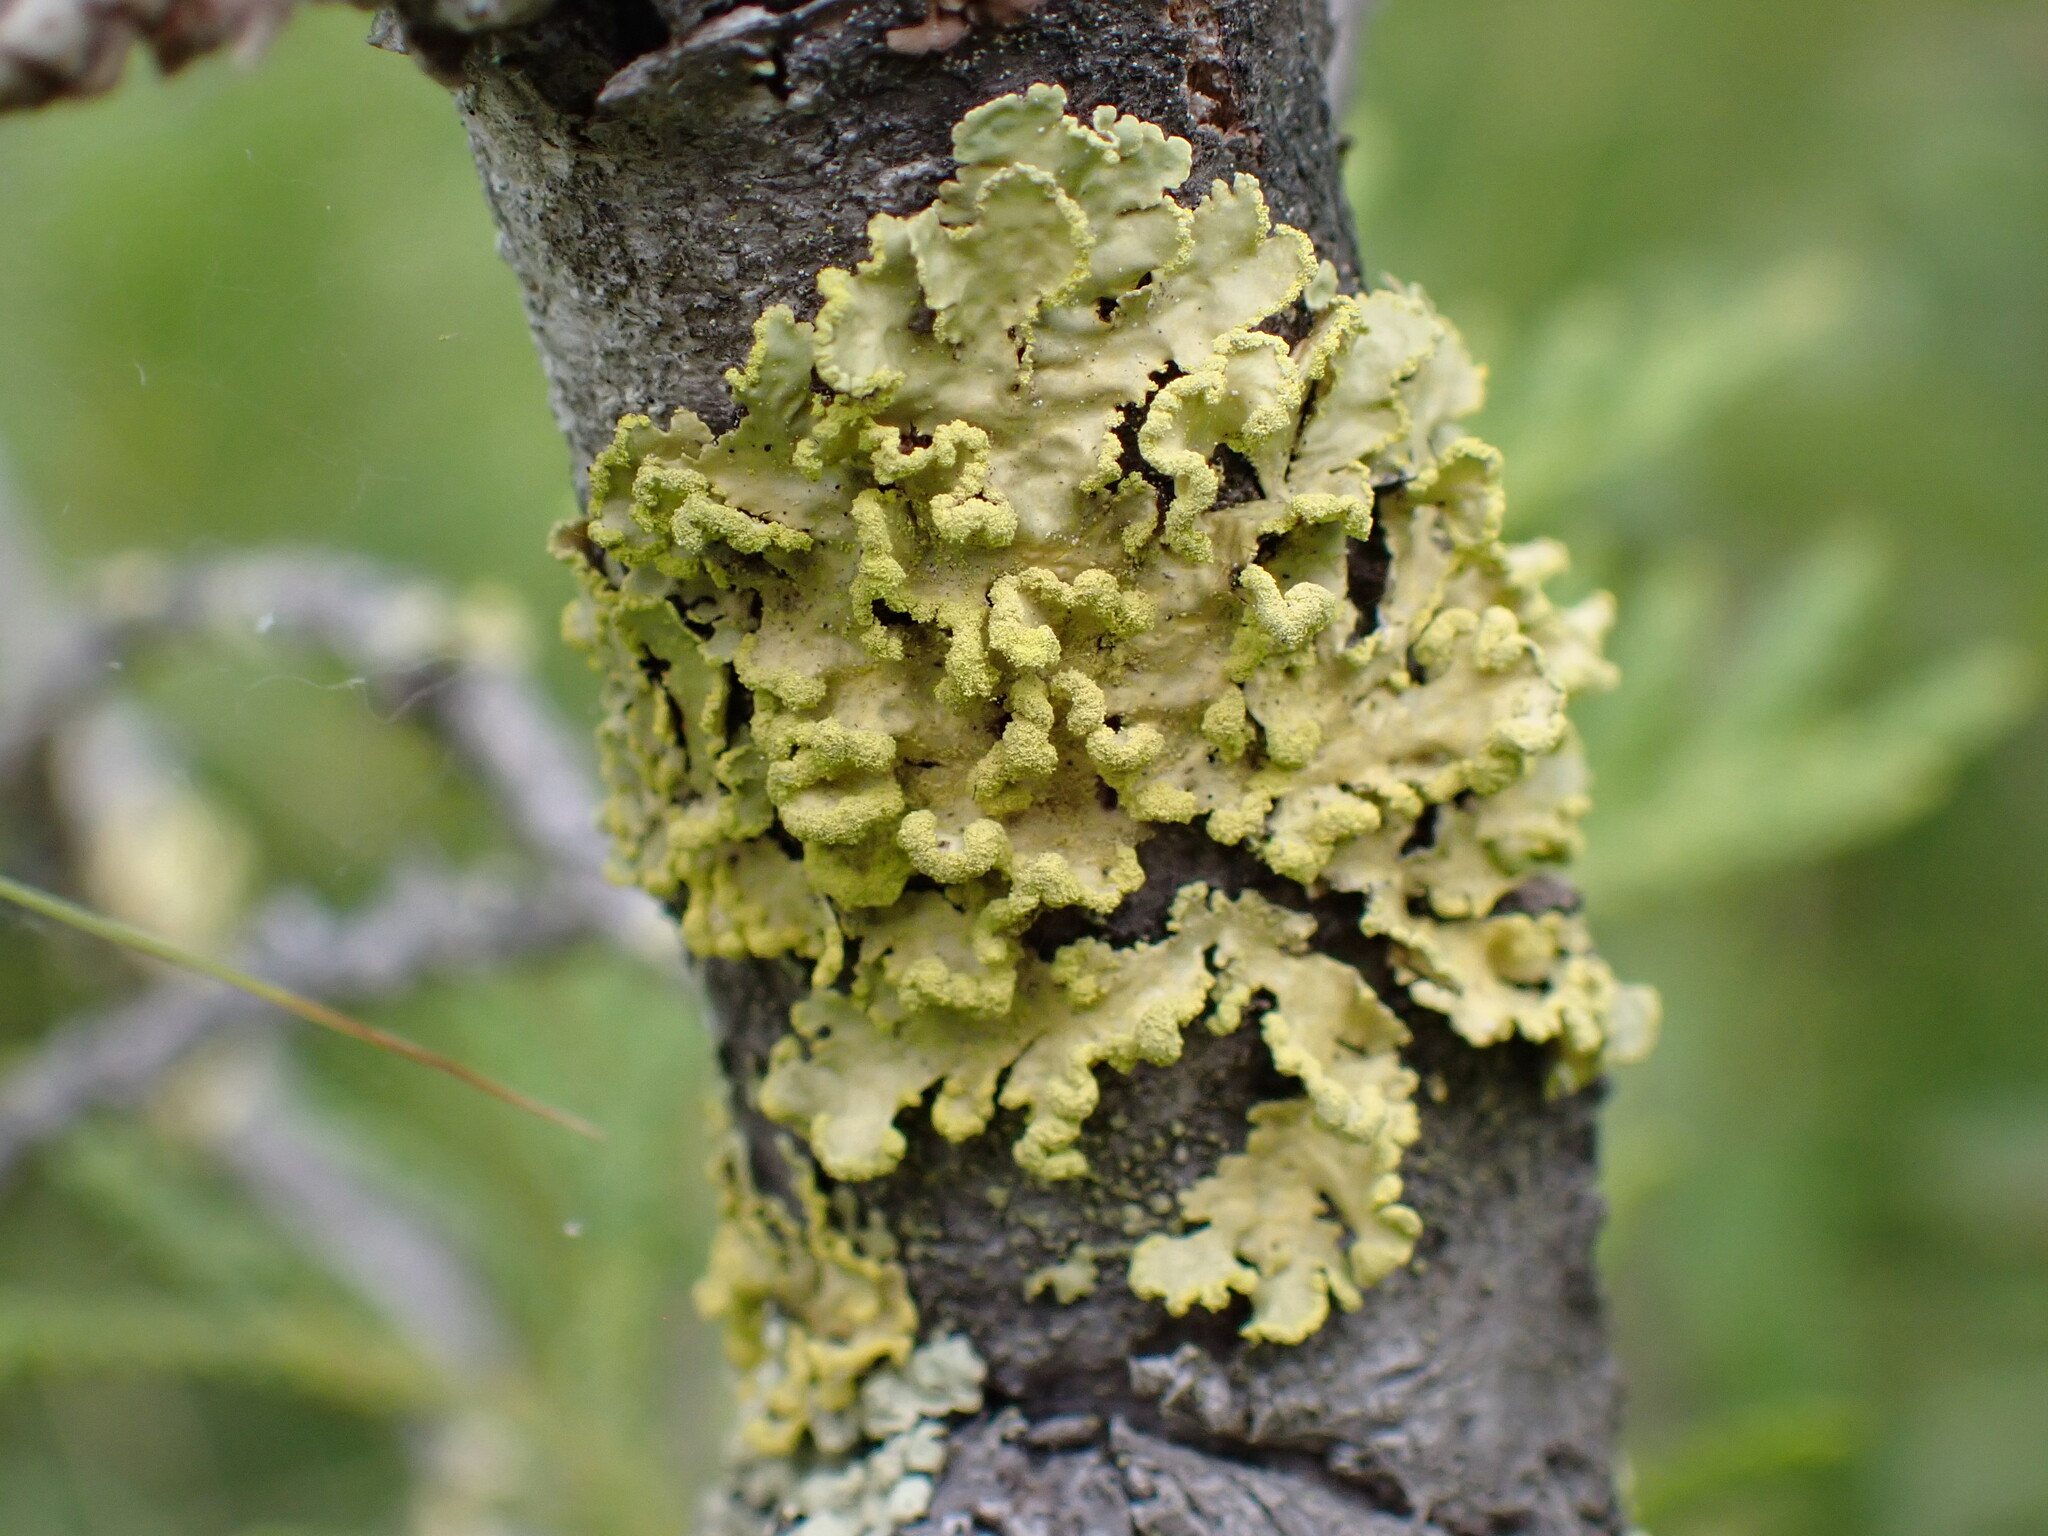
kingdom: Fungi
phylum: Ascomycota
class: Lecanoromycetes
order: Lecanorales
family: Parmeliaceae
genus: Vulpicida
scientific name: Vulpicida pinastri
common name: Powdered sunshine lichen
